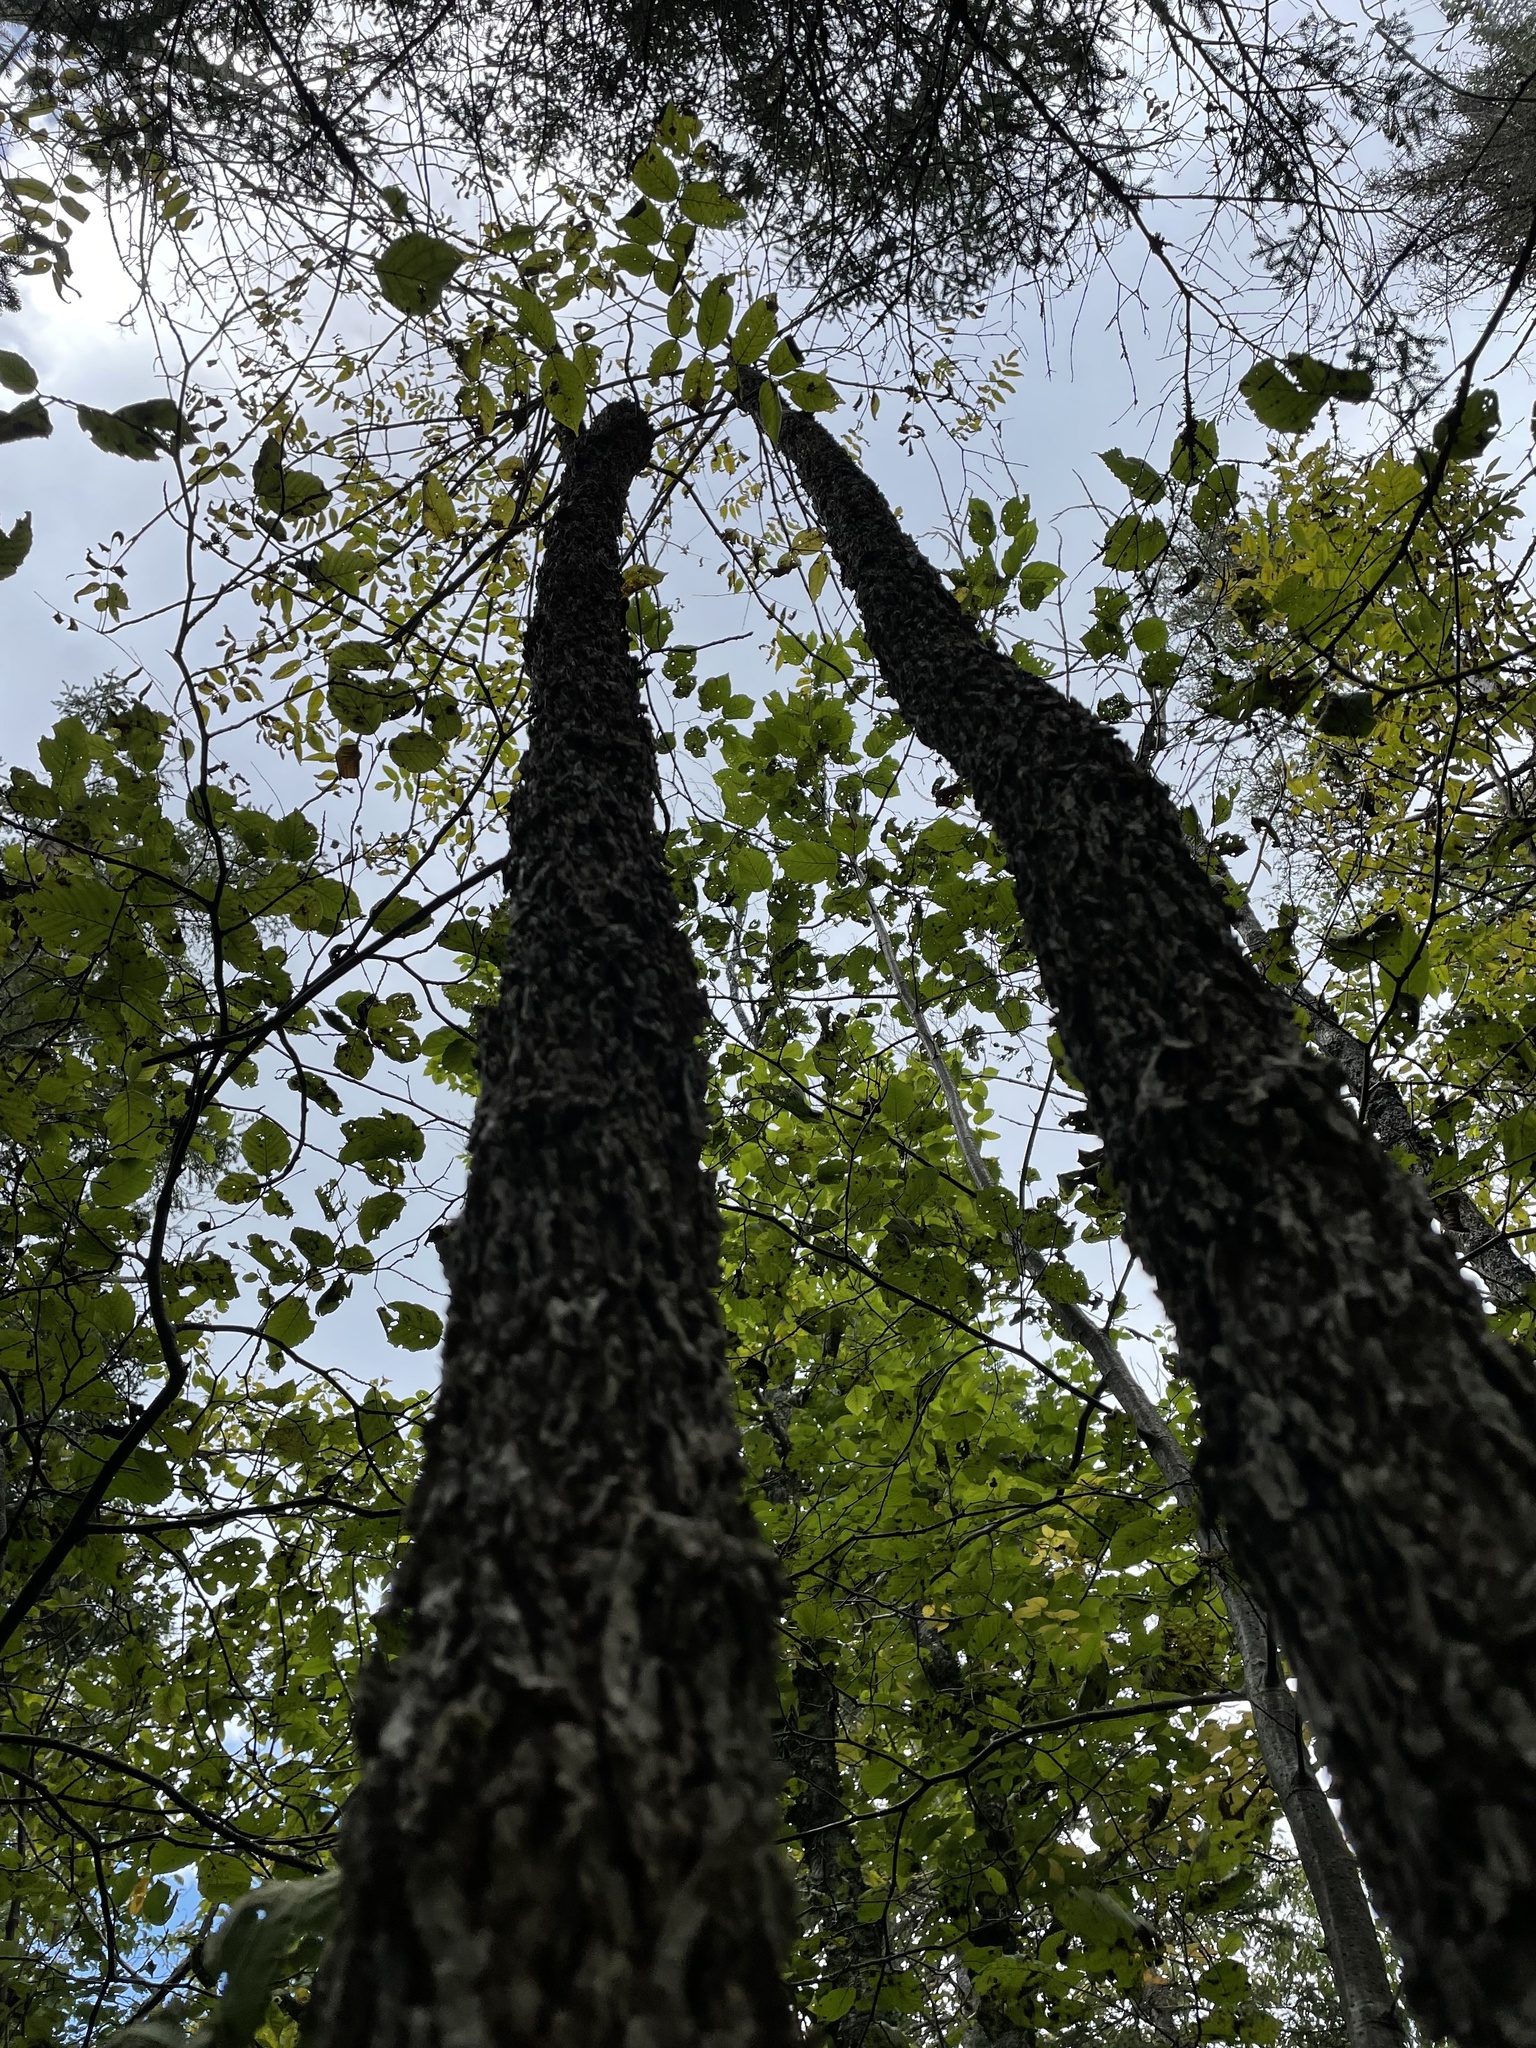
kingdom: Plantae
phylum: Tracheophyta
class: Magnoliopsida
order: Lamiales
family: Oleaceae
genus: Fraxinus
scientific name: Fraxinus nigra
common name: Black ash
